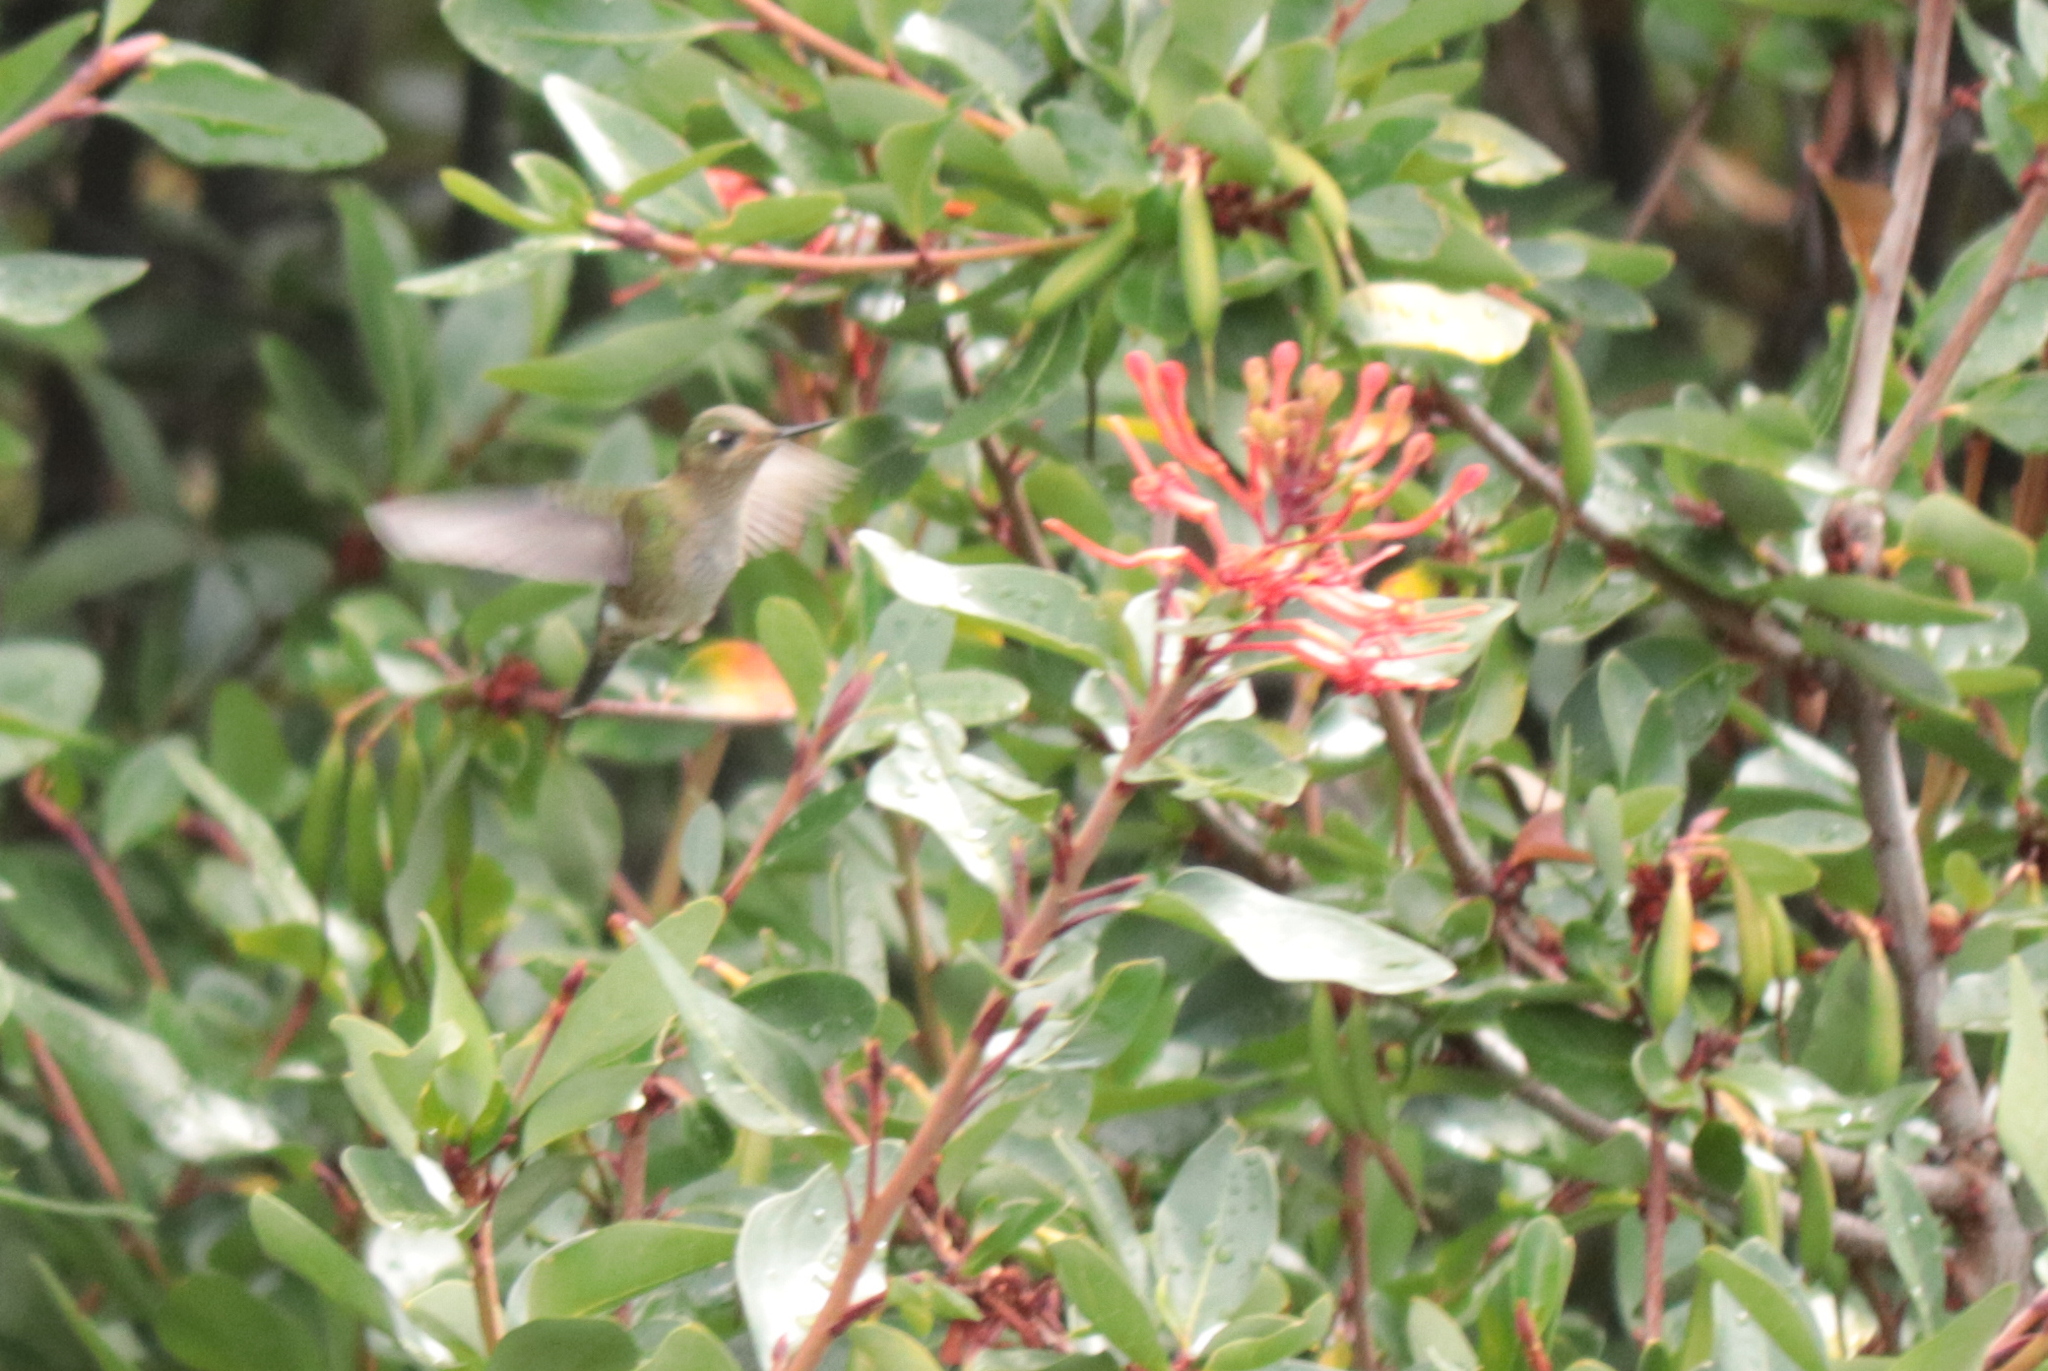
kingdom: Animalia
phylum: Chordata
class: Aves
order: Apodiformes
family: Trochilidae
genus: Sephanoides
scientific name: Sephanoides sephaniodes
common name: Green-backed firecrown
